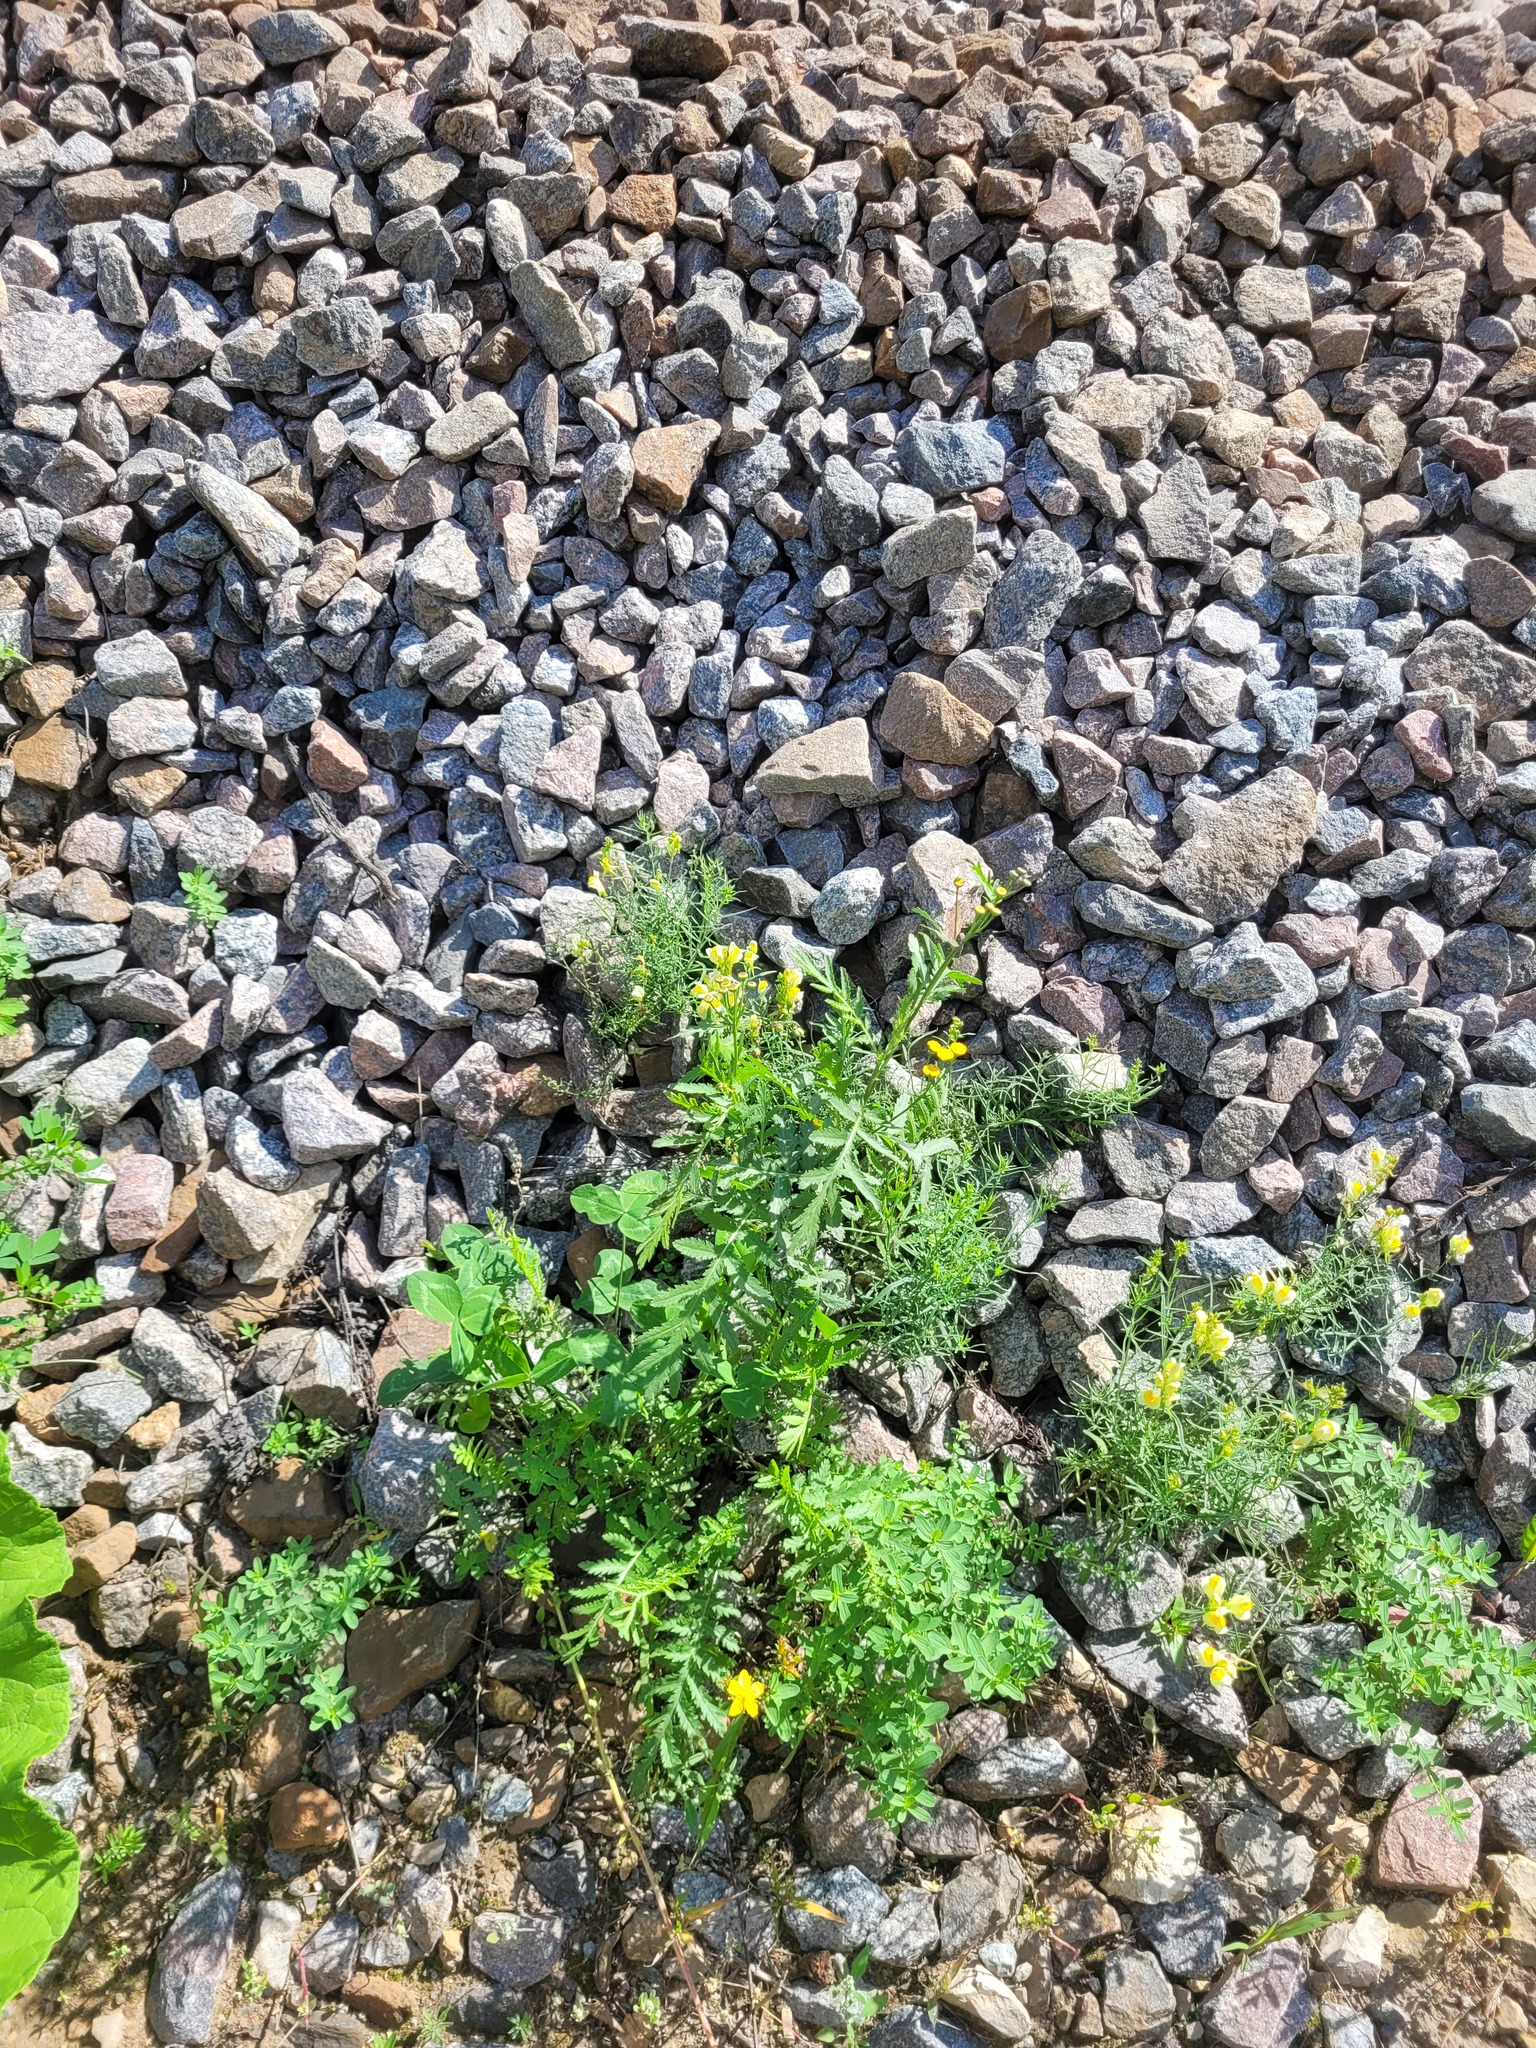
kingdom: Plantae
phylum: Tracheophyta
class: Magnoliopsida
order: Asterales
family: Asteraceae
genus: Tanacetum
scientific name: Tanacetum vulgare
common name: Common tansy
